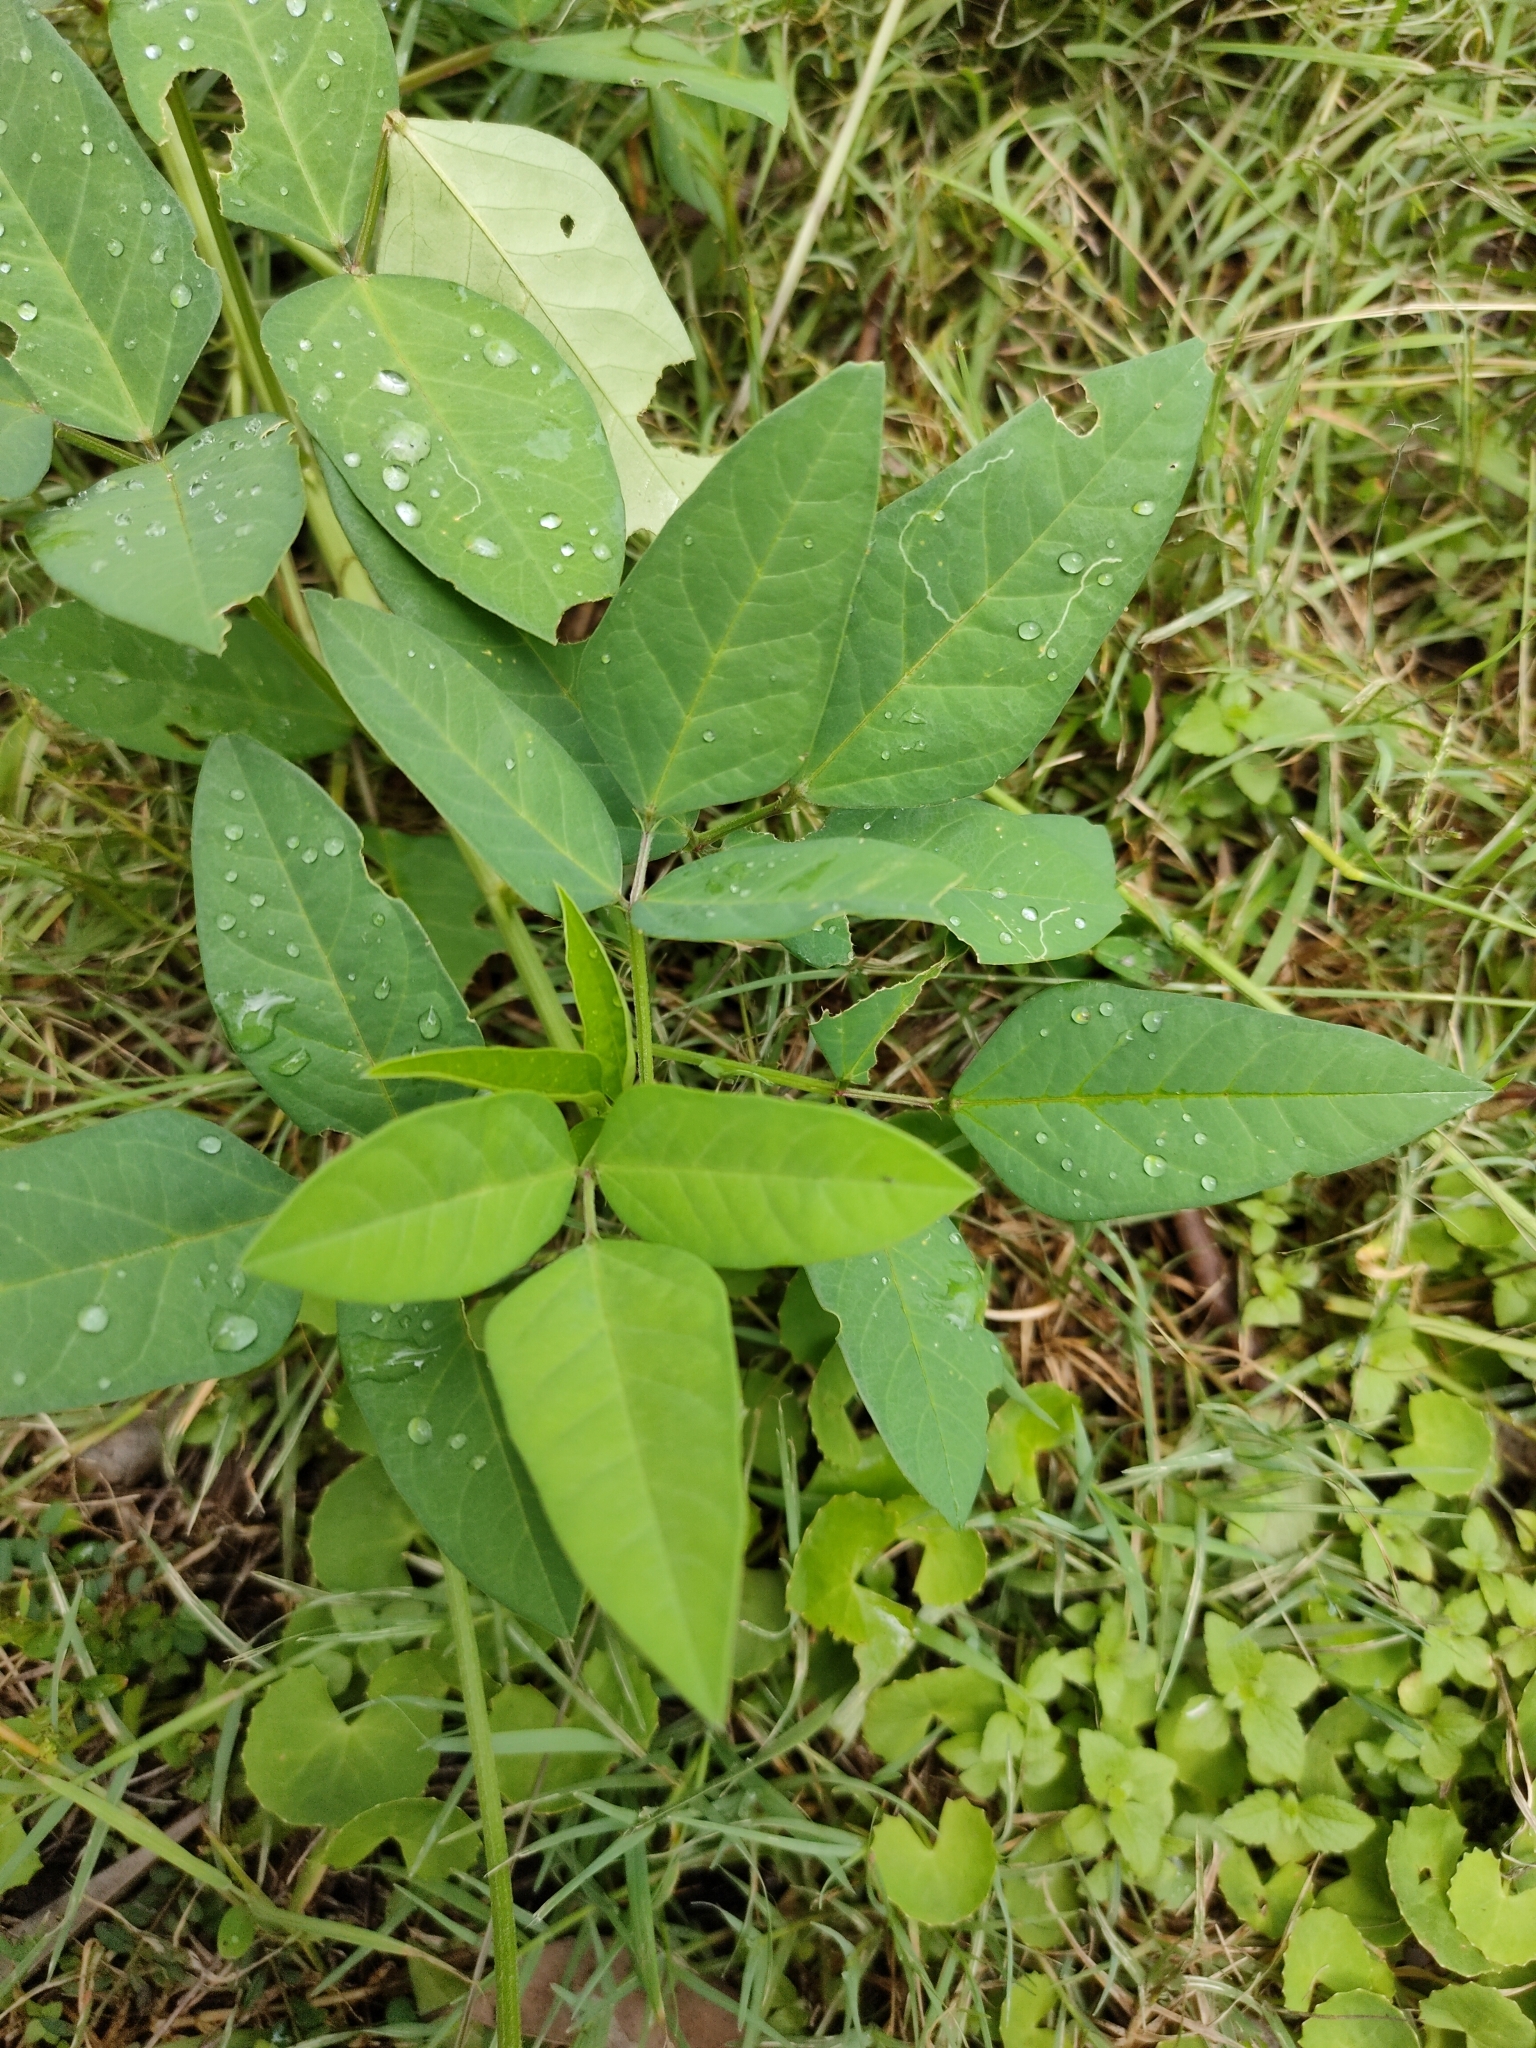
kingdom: Plantae
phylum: Tracheophyta
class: Magnoliopsida
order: Fabales
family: Fabaceae
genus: Macroptilium
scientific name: Macroptilium lathyroides
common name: Wild bushbean
